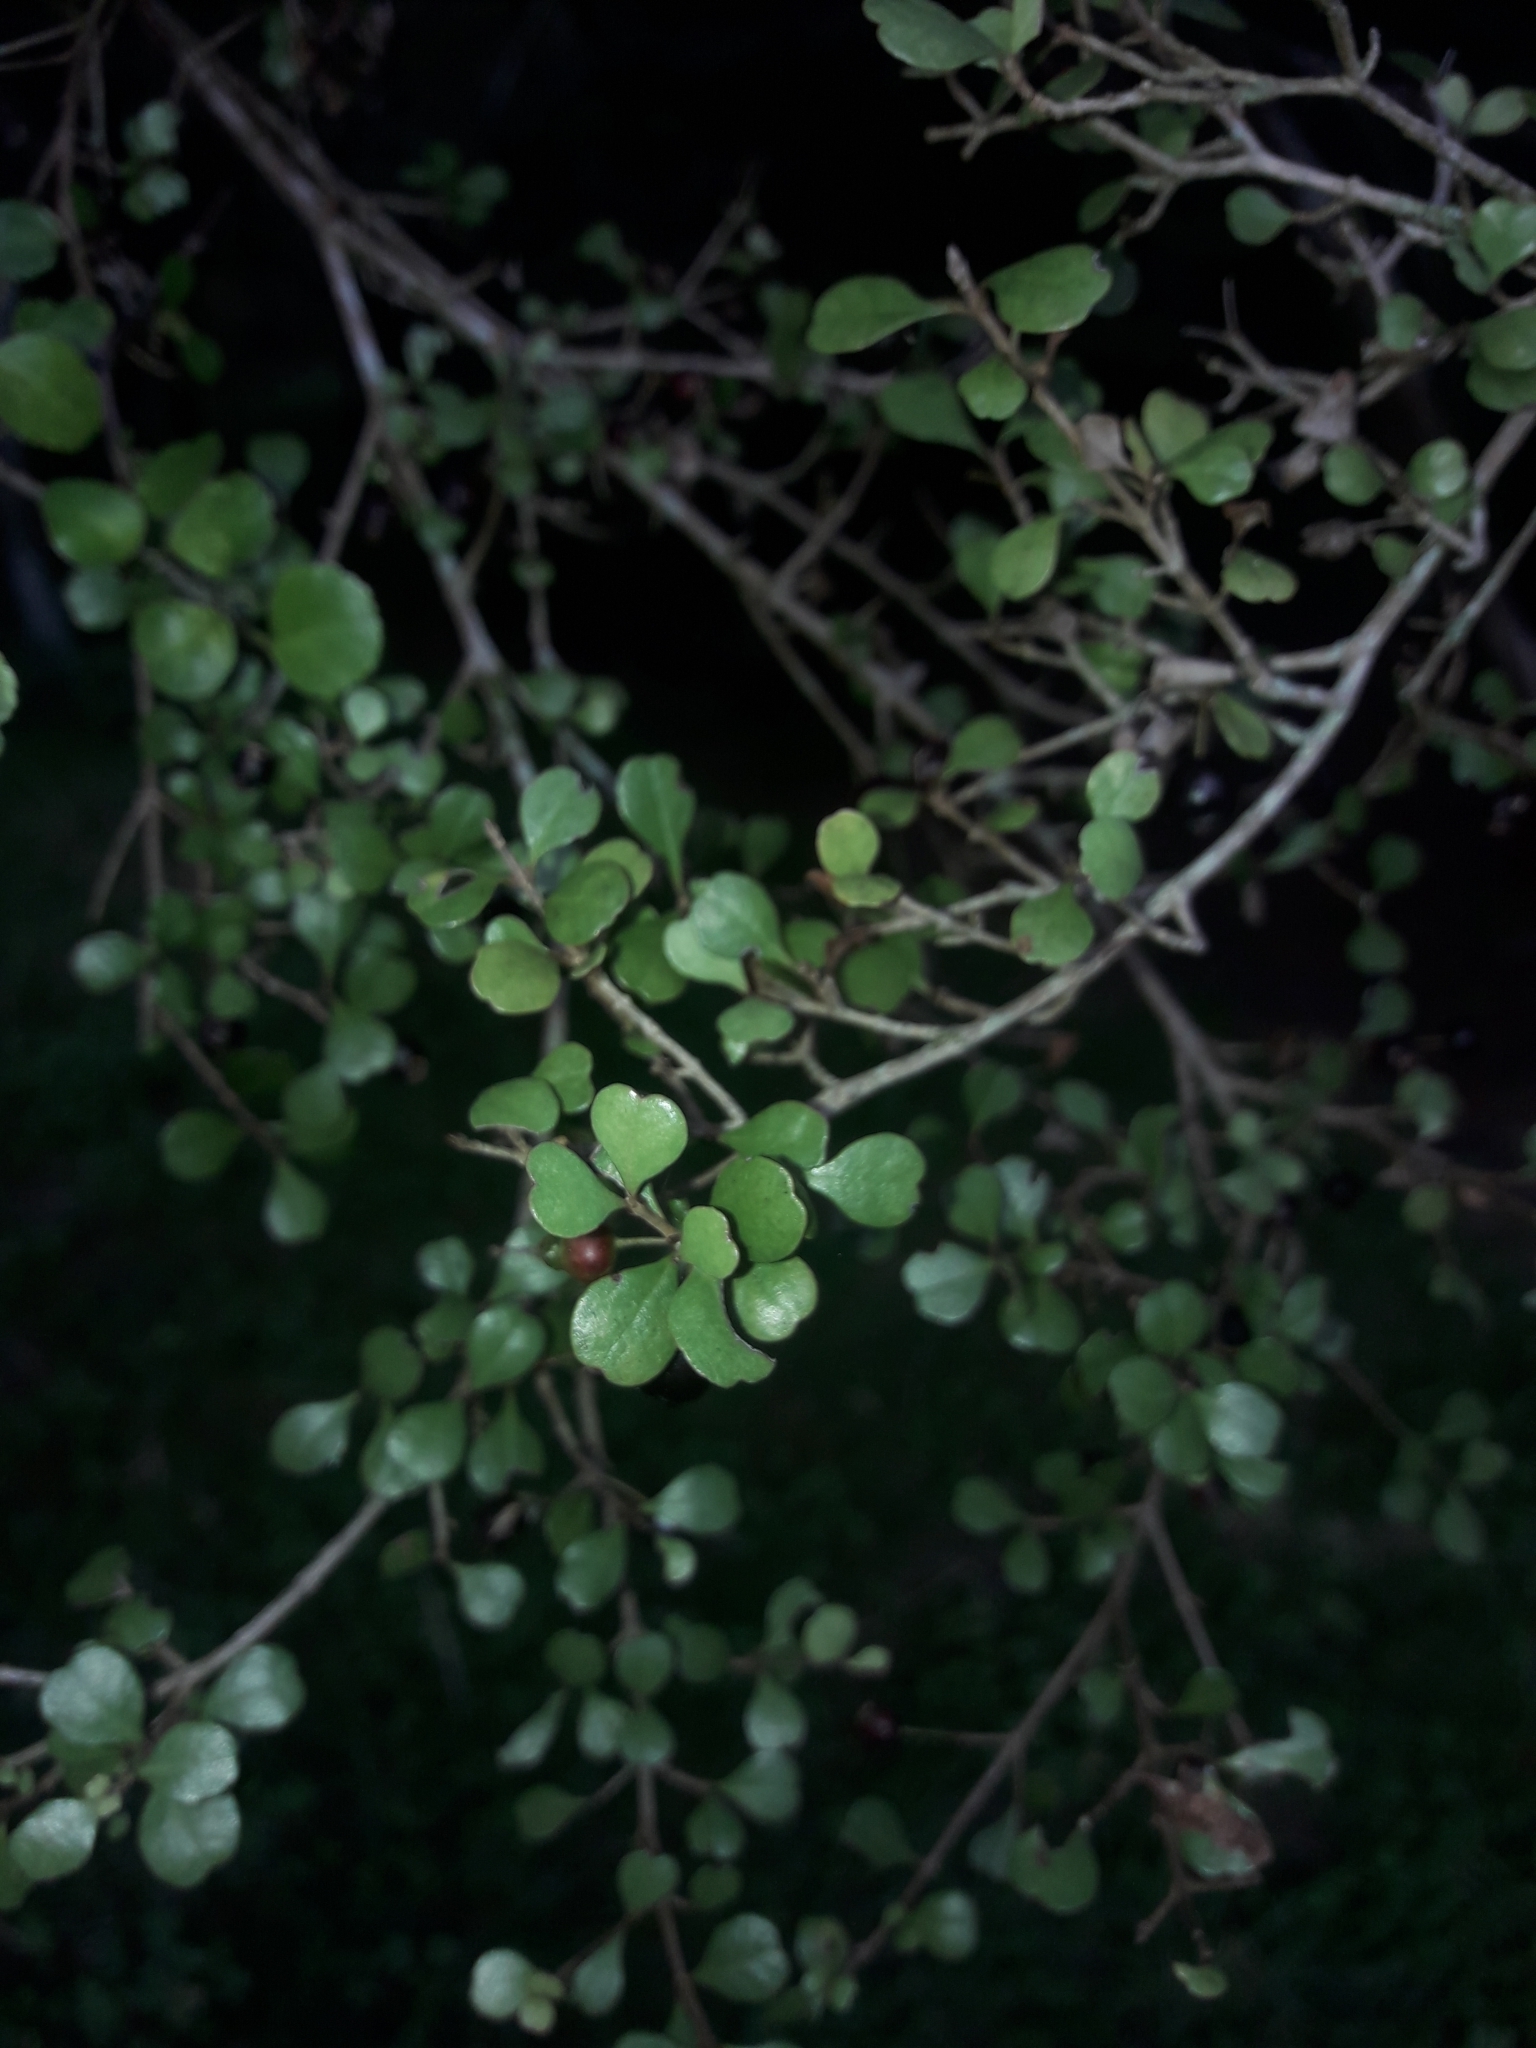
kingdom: Plantae
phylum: Tracheophyta
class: Magnoliopsida
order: Myrtales
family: Myrtaceae
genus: Lophomyrtus
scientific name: Lophomyrtus obcordata
